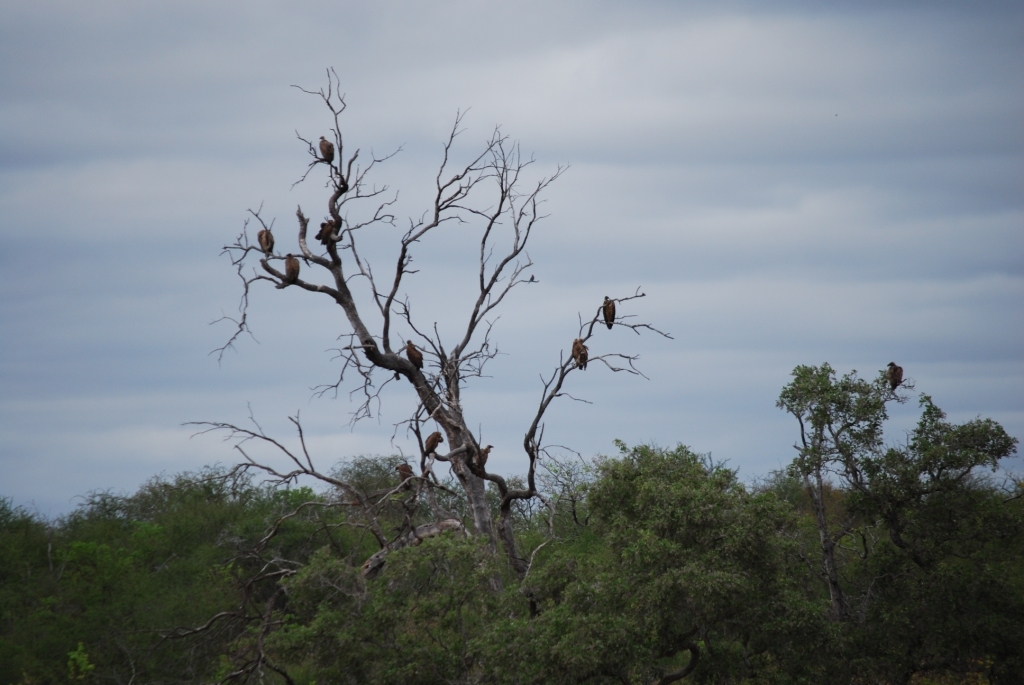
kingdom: Animalia
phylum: Chordata
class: Aves
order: Accipitriformes
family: Accipitridae
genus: Gyps
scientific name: Gyps africanus
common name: White-backed vulture
